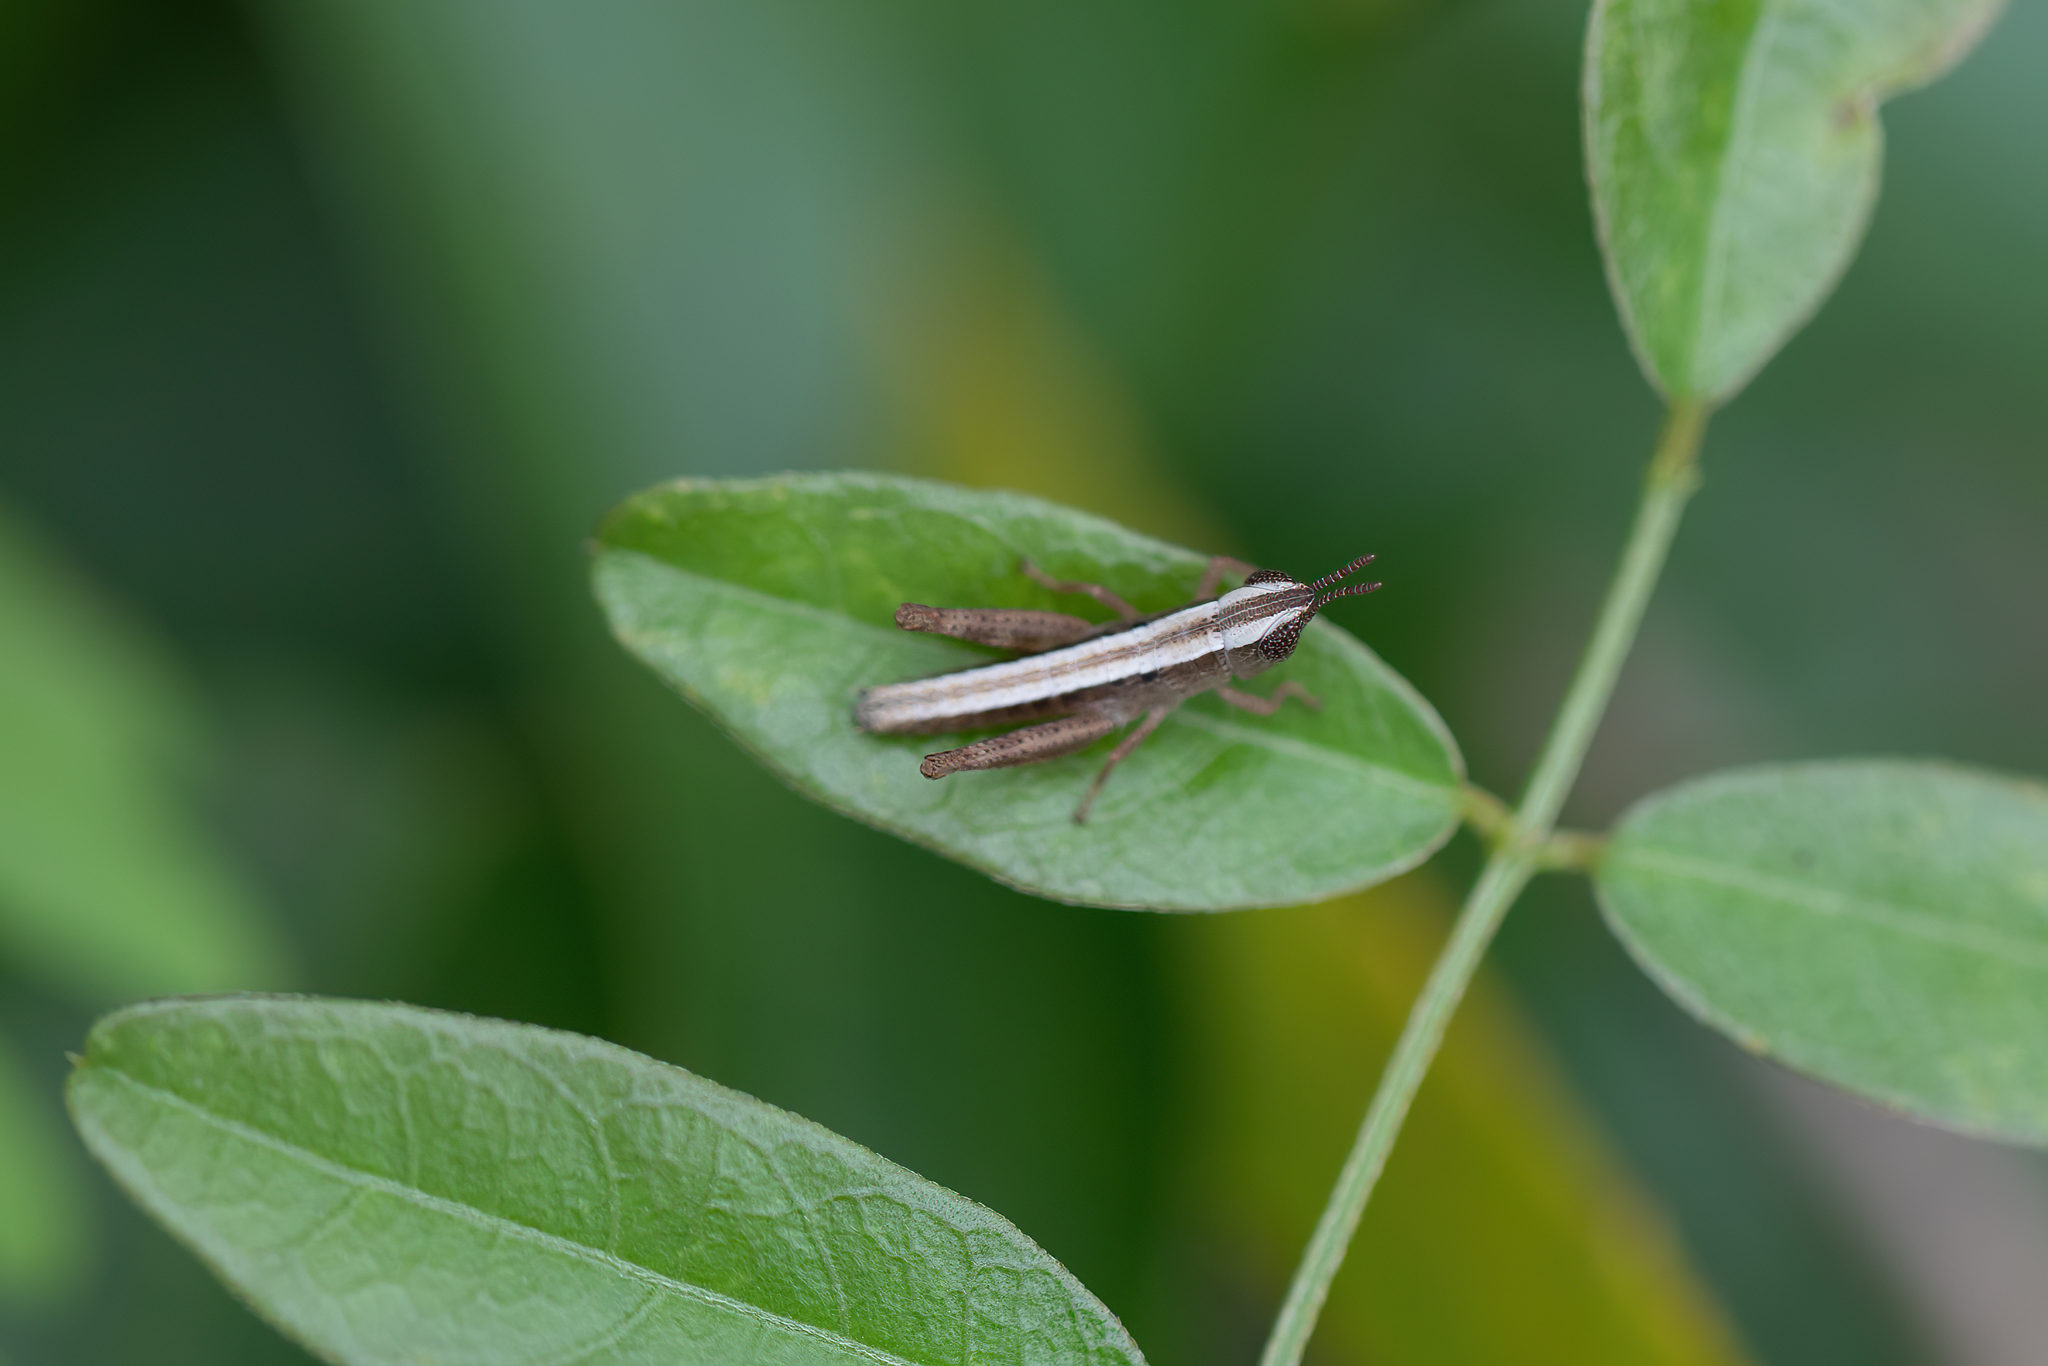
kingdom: Animalia
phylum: Arthropoda
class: Insecta
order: Orthoptera
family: Acrididae
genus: Dichromorpha
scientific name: Dichromorpha elegans
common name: Elegant grasshopper
